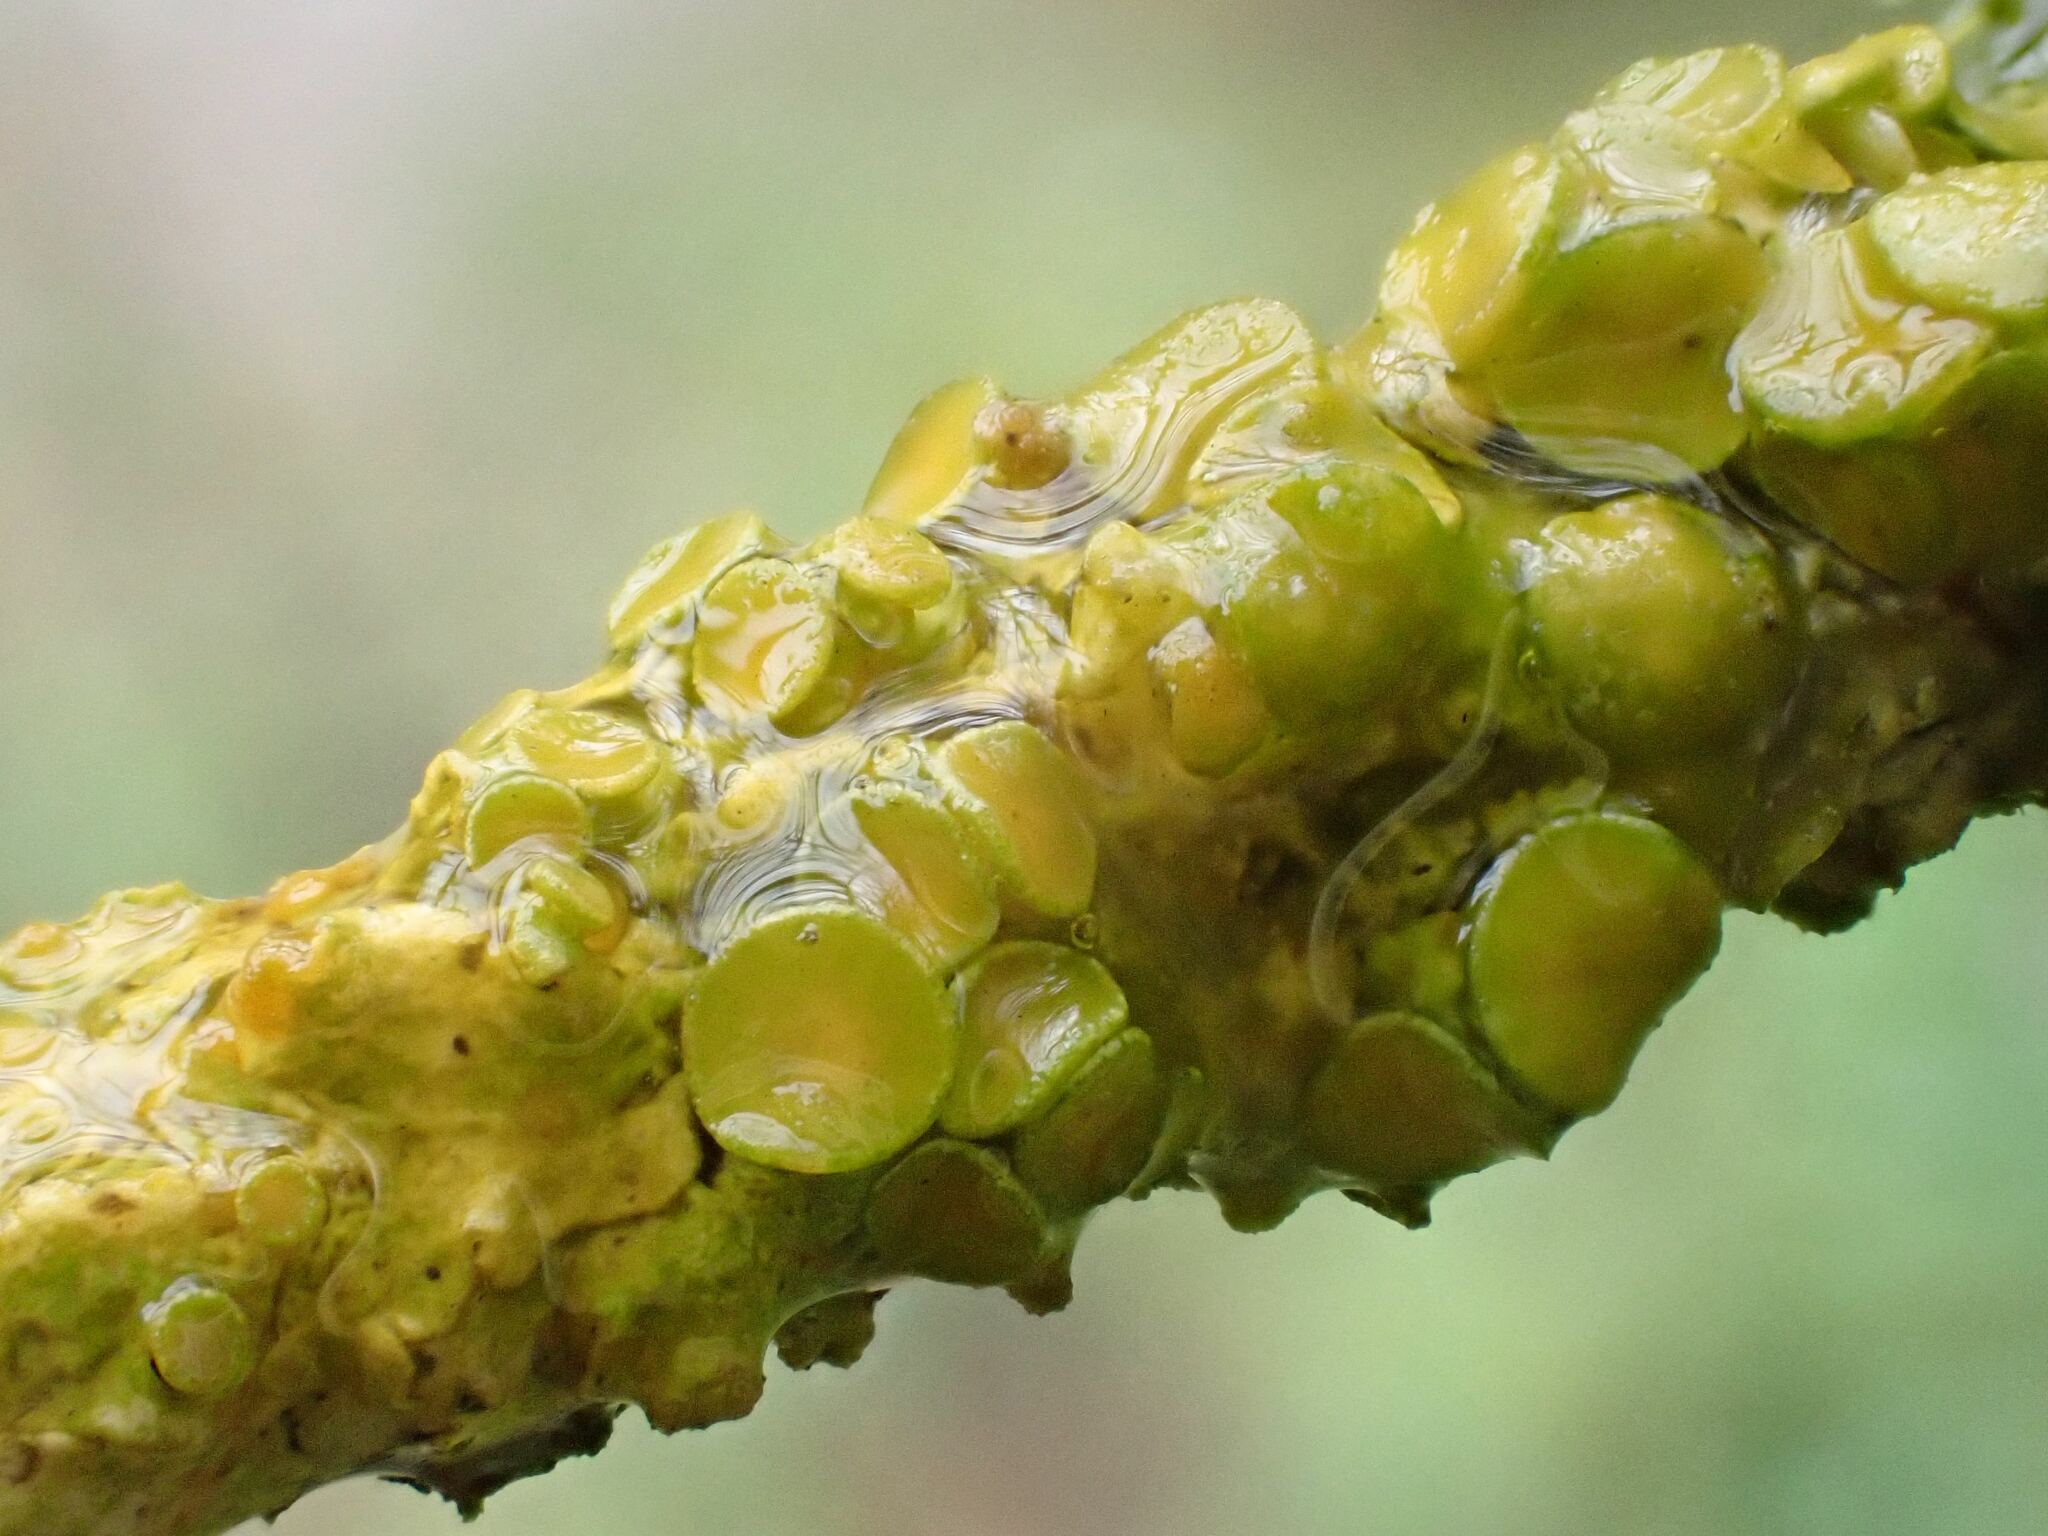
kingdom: Fungi
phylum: Ascomycota
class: Lecanoromycetes
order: Teloschistales
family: Teloschistaceae
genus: Xanthoria
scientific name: Xanthoria parietina
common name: Common orange lichen
